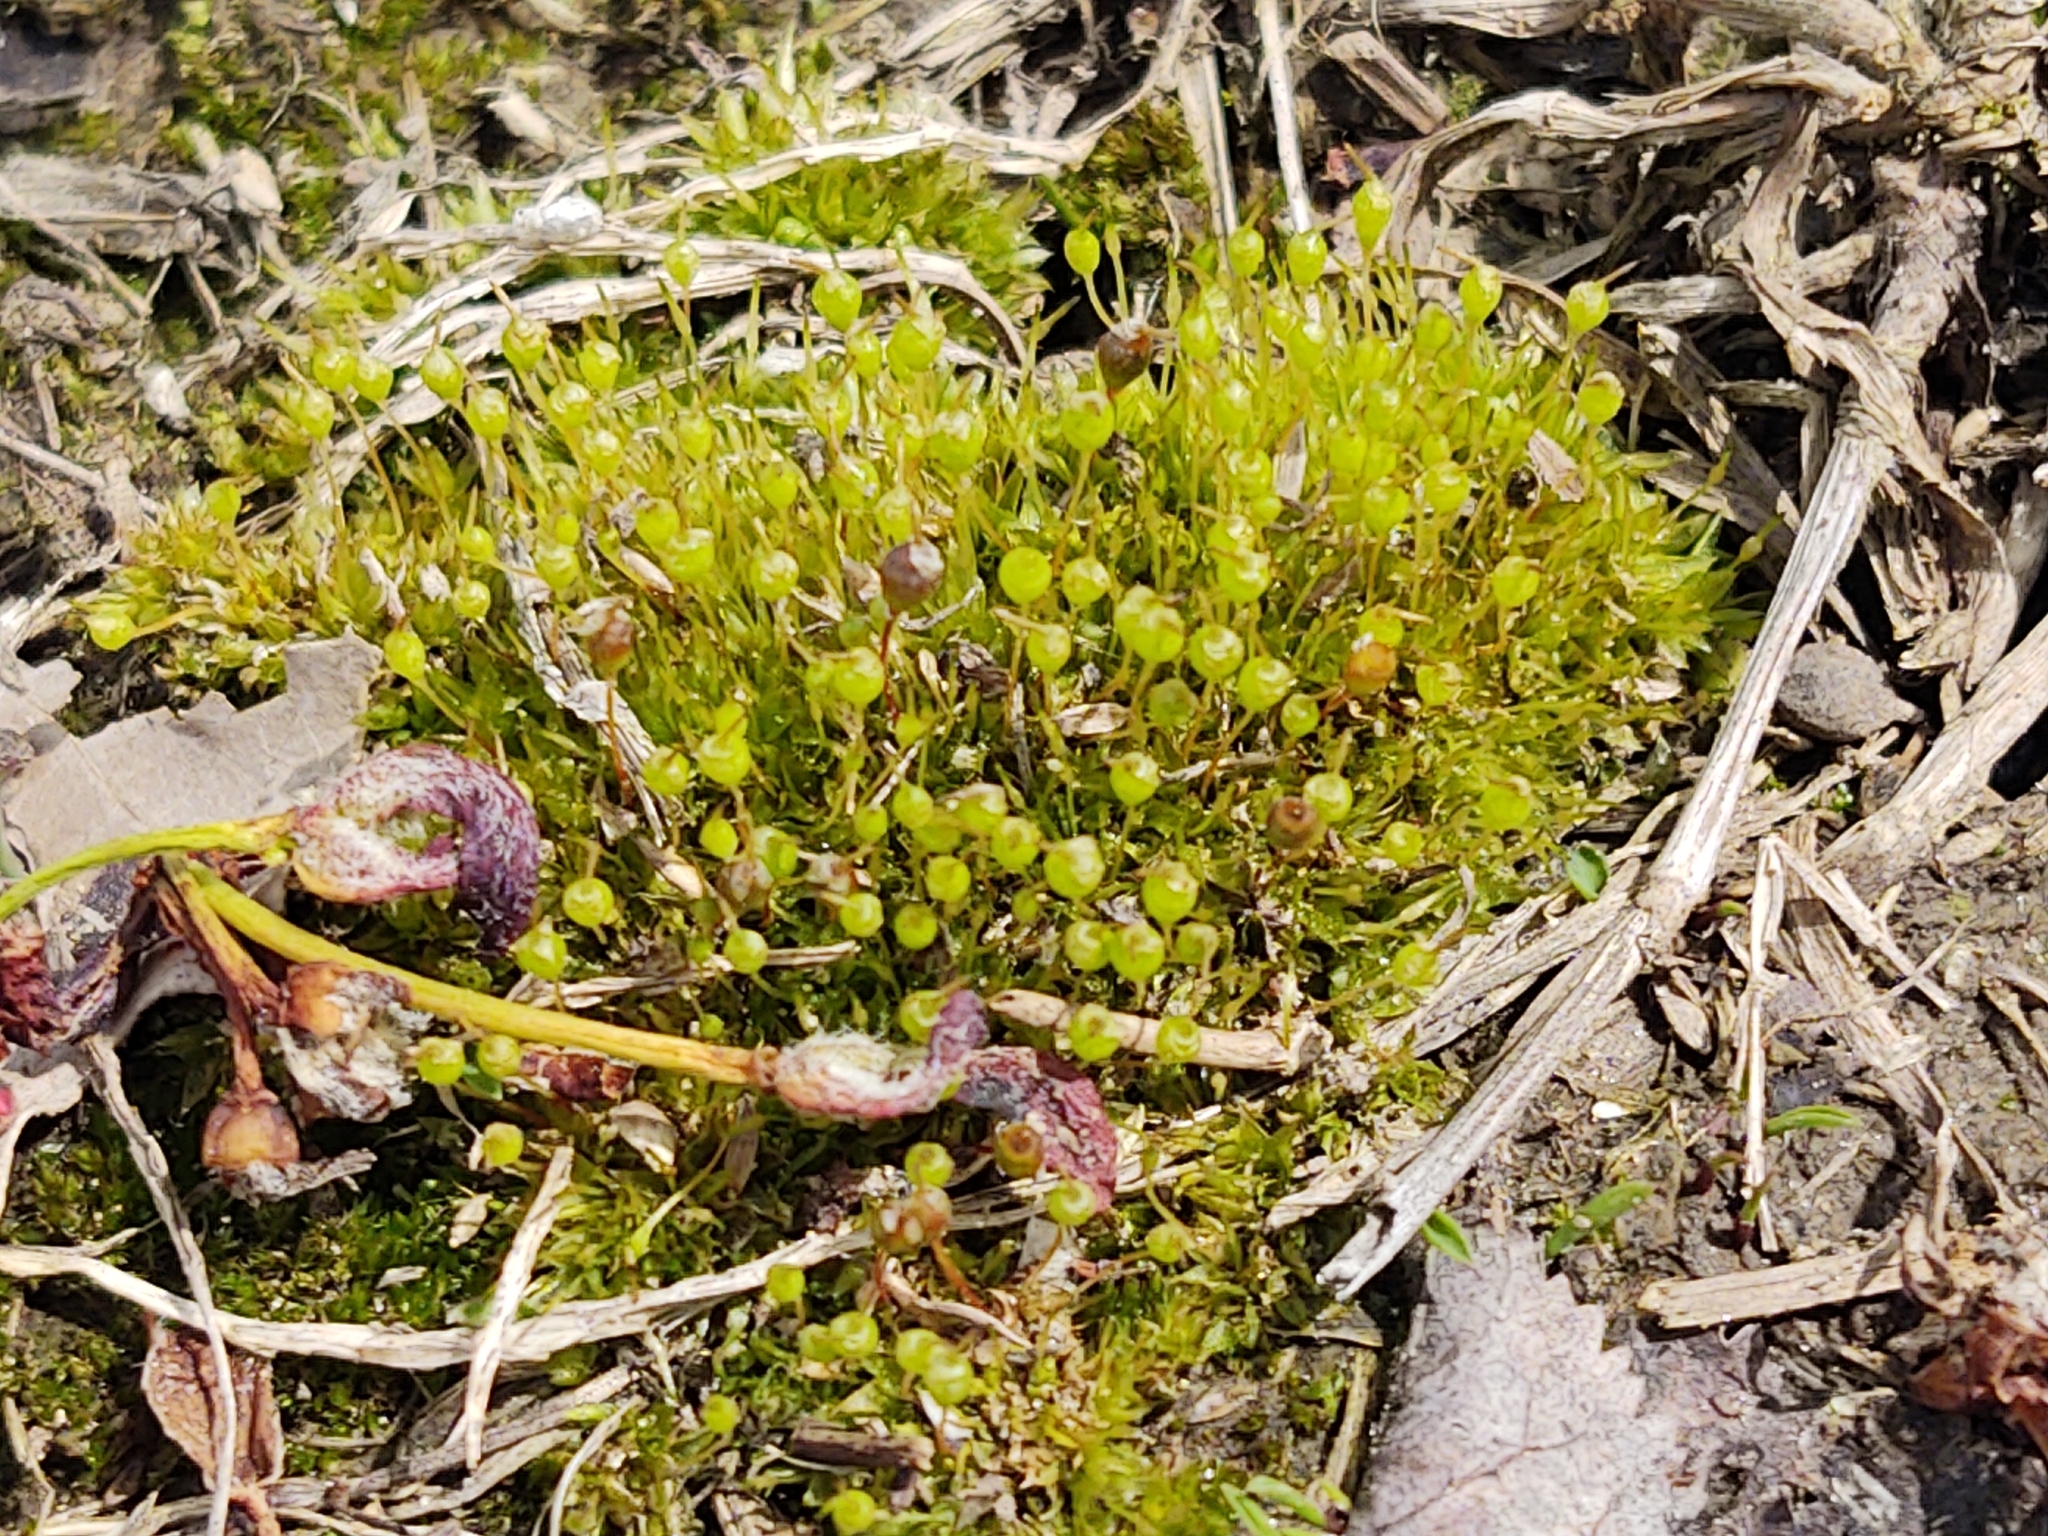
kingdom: Plantae
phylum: Bryophyta
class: Bryopsida
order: Funariales
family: Funariaceae
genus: Physcomitrium
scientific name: Physcomitrium pyriforme
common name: Common bladder-moss
